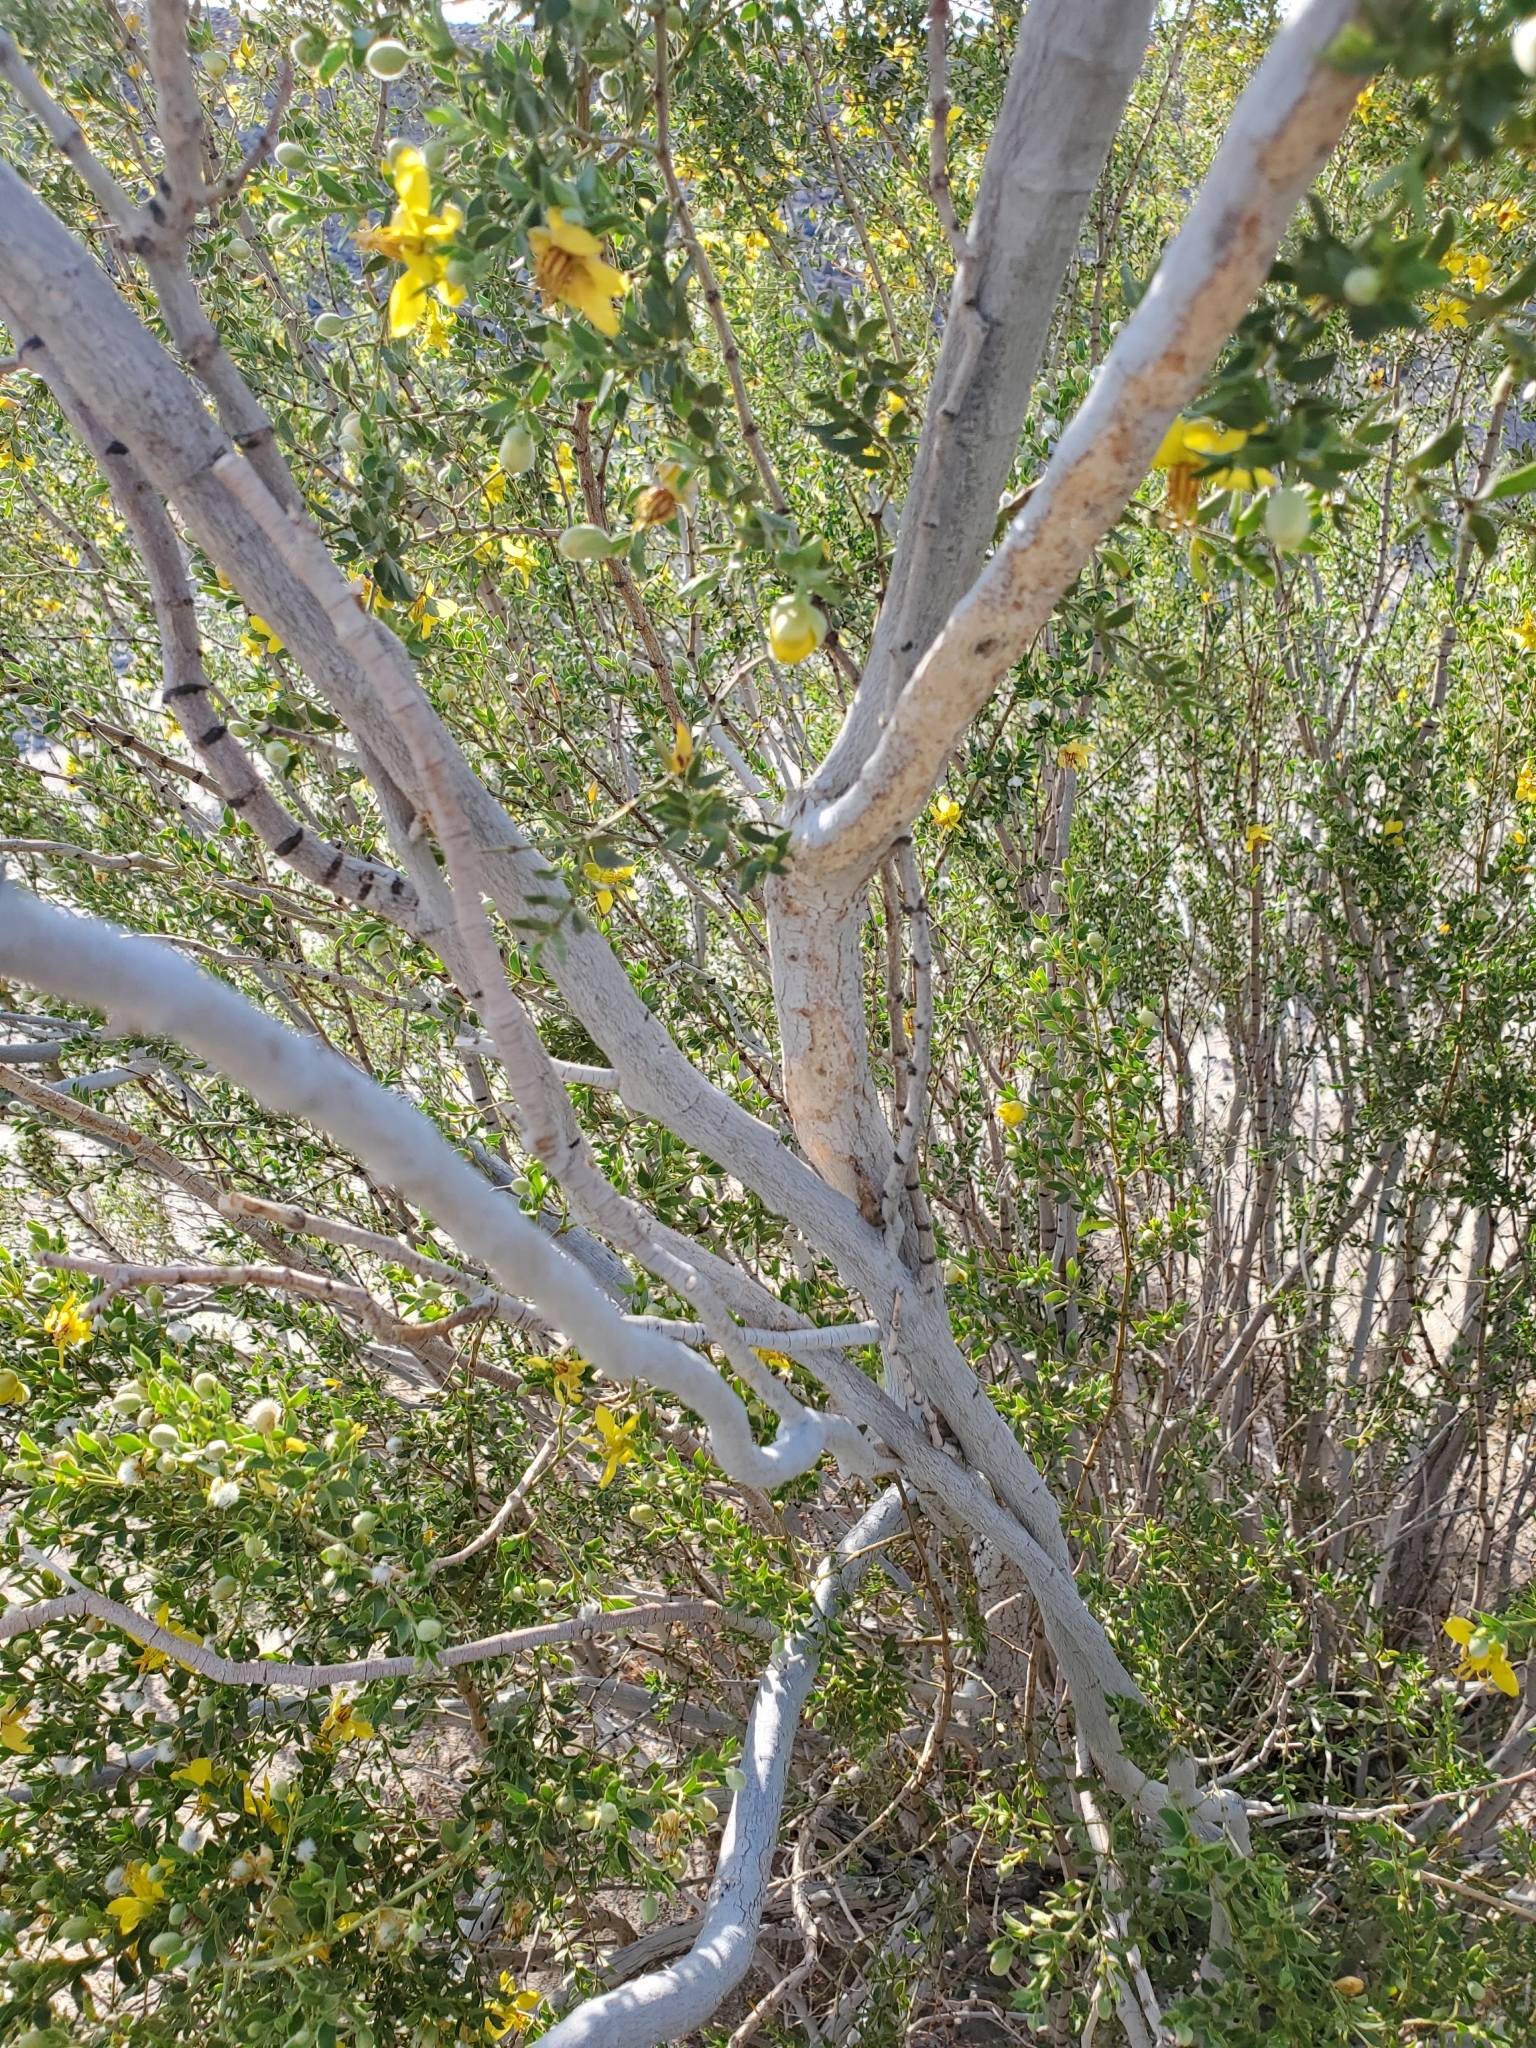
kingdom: Plantae
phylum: Tracheophyta
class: Magnoliopsida
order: Zygophyllales
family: Zygophyllaceae
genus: Larrea
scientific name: Larrea tridentata
